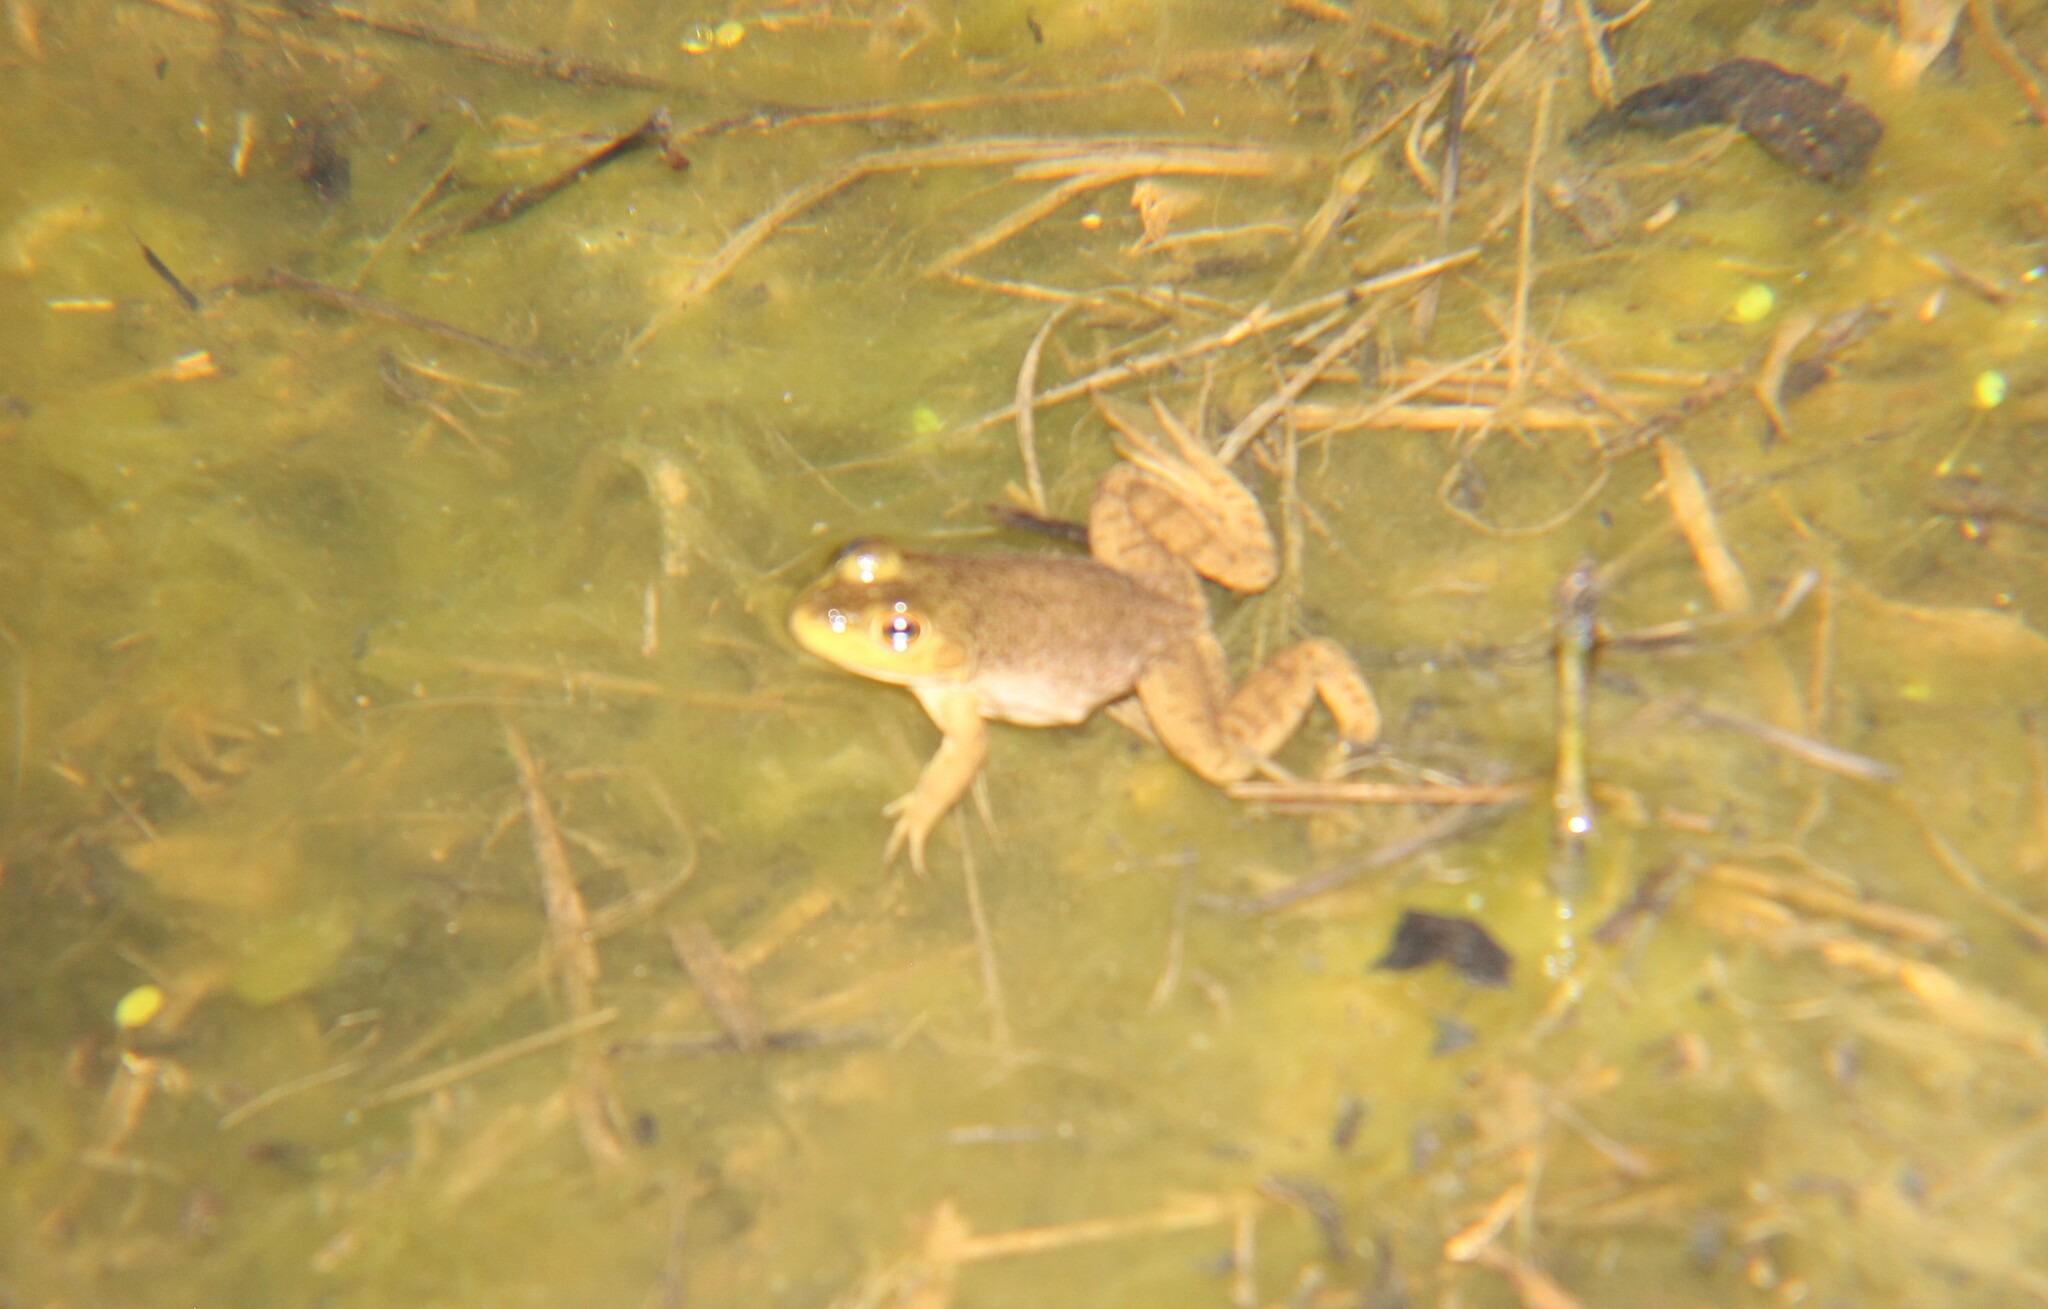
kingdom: Animalia
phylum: Chordata
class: Amphibia
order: Anura
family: Ranidae
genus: Lithobates
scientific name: Lithobates catesbeianus
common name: American bullfrog
